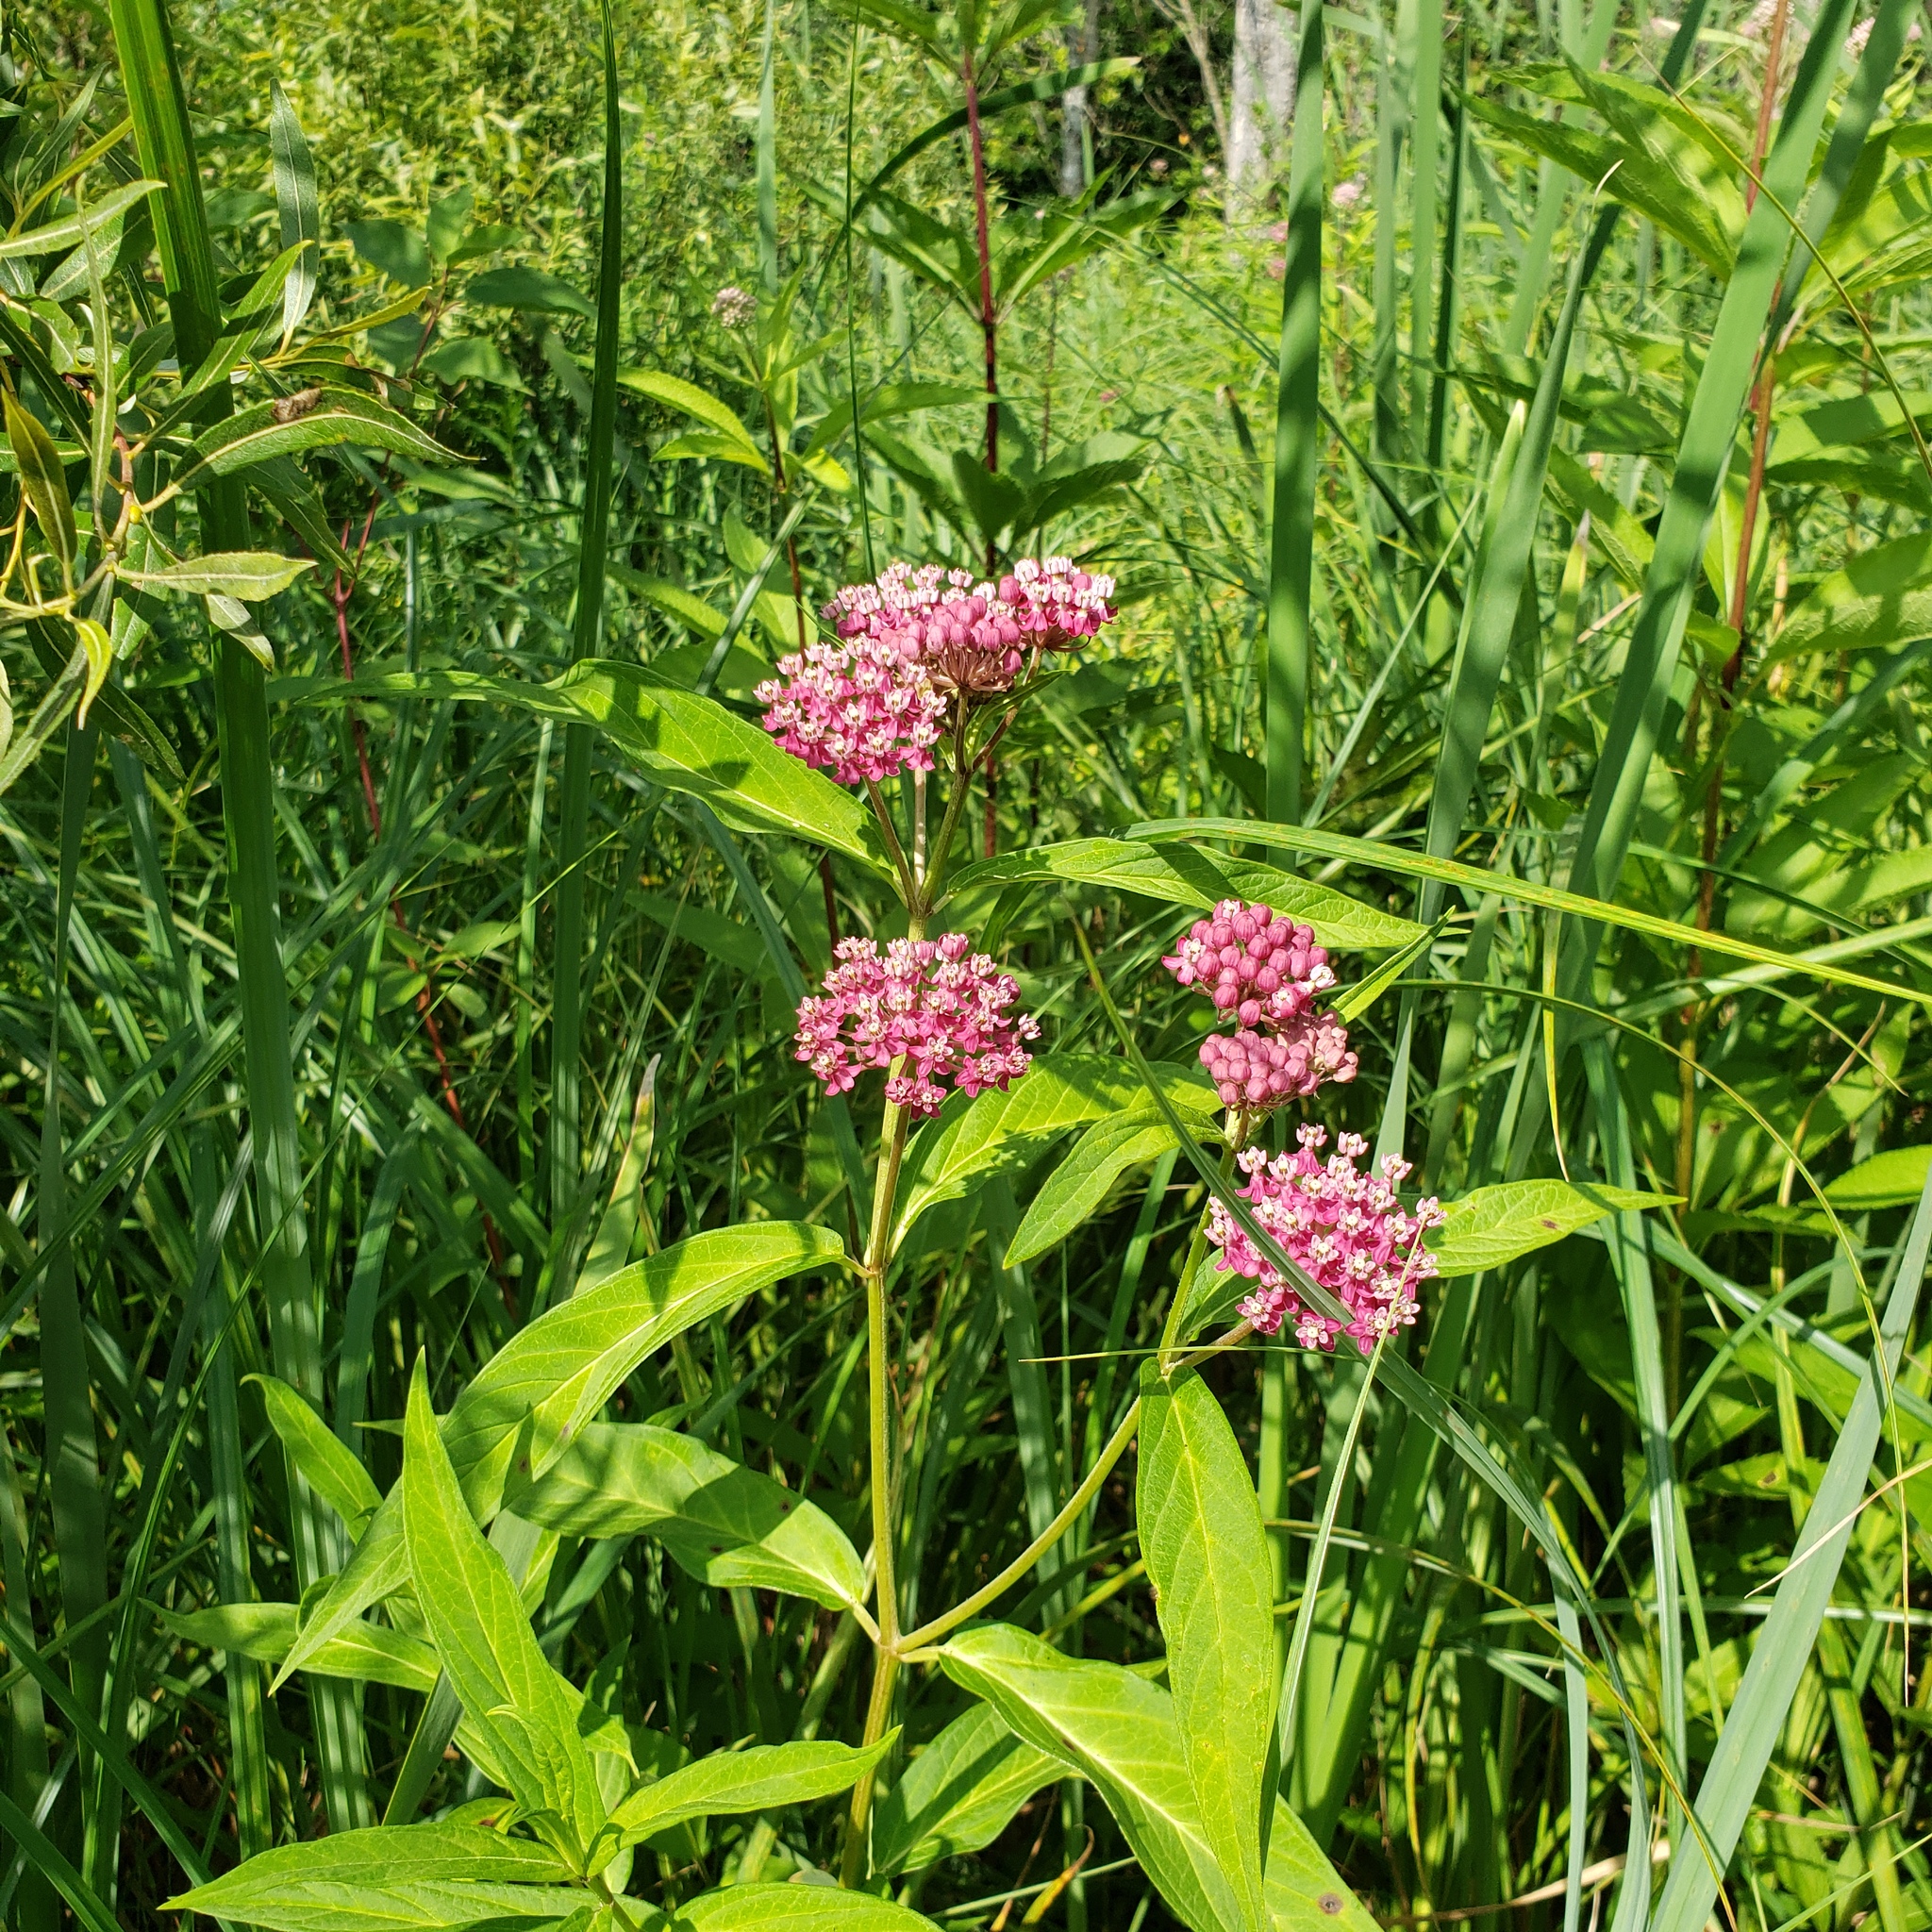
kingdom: Plantae
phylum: Tracheophyta
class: Magnoliopsida
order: Gentianales
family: Apocynaceae
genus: Asclepias
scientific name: Asclepias incarnata
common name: Swamp milkweed
